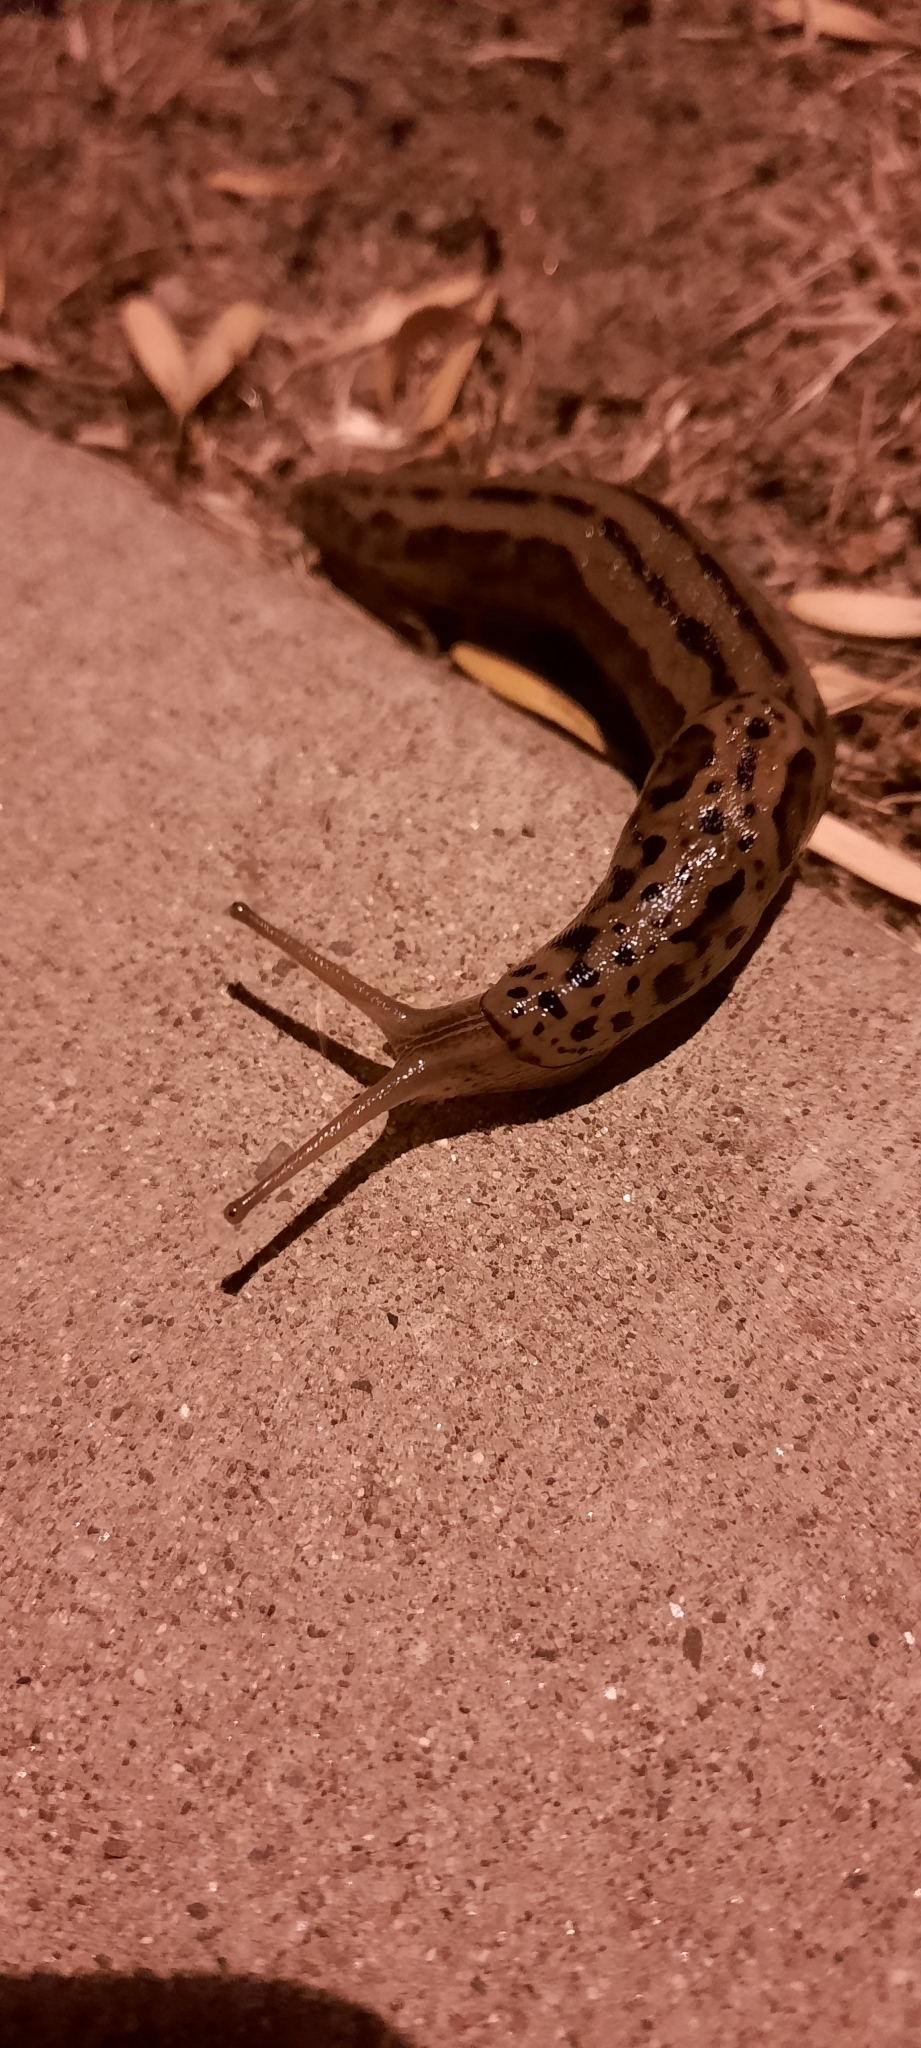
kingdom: Animalia
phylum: Mollusca
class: Gastropoda
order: Stylommatophora
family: Limacidae
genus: Limax
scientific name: Limax maximus
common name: Great grey slug
